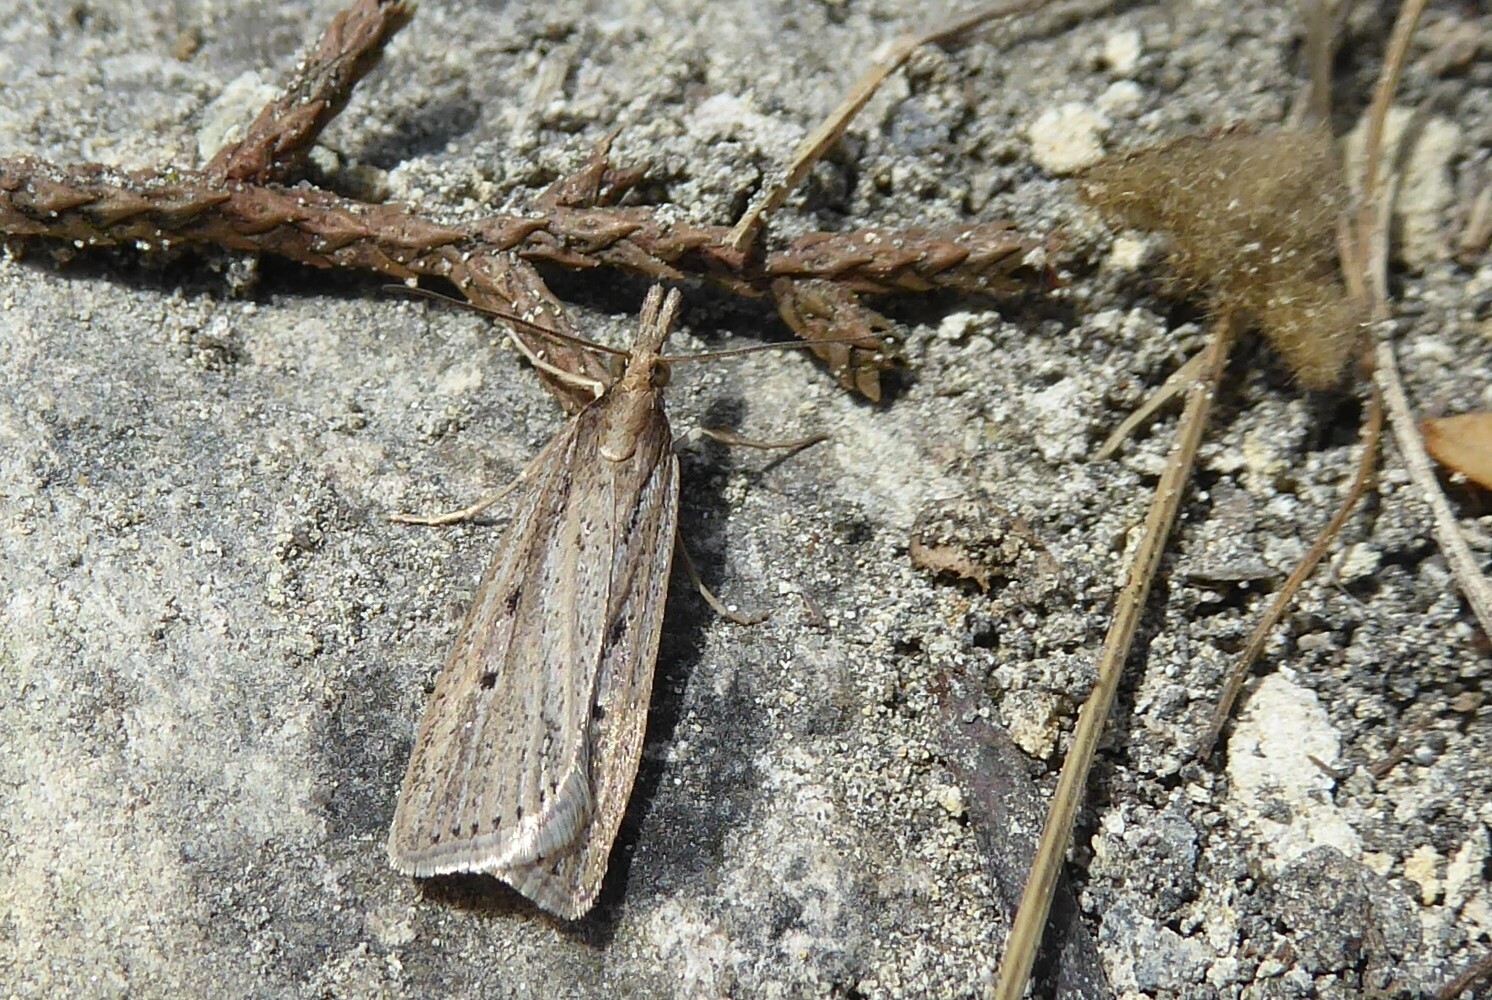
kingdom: Animalia
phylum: Arthropoda
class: Insecta
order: Lepidoptera
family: Crambidae
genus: Eudonia
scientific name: Eudonia sabulosella
